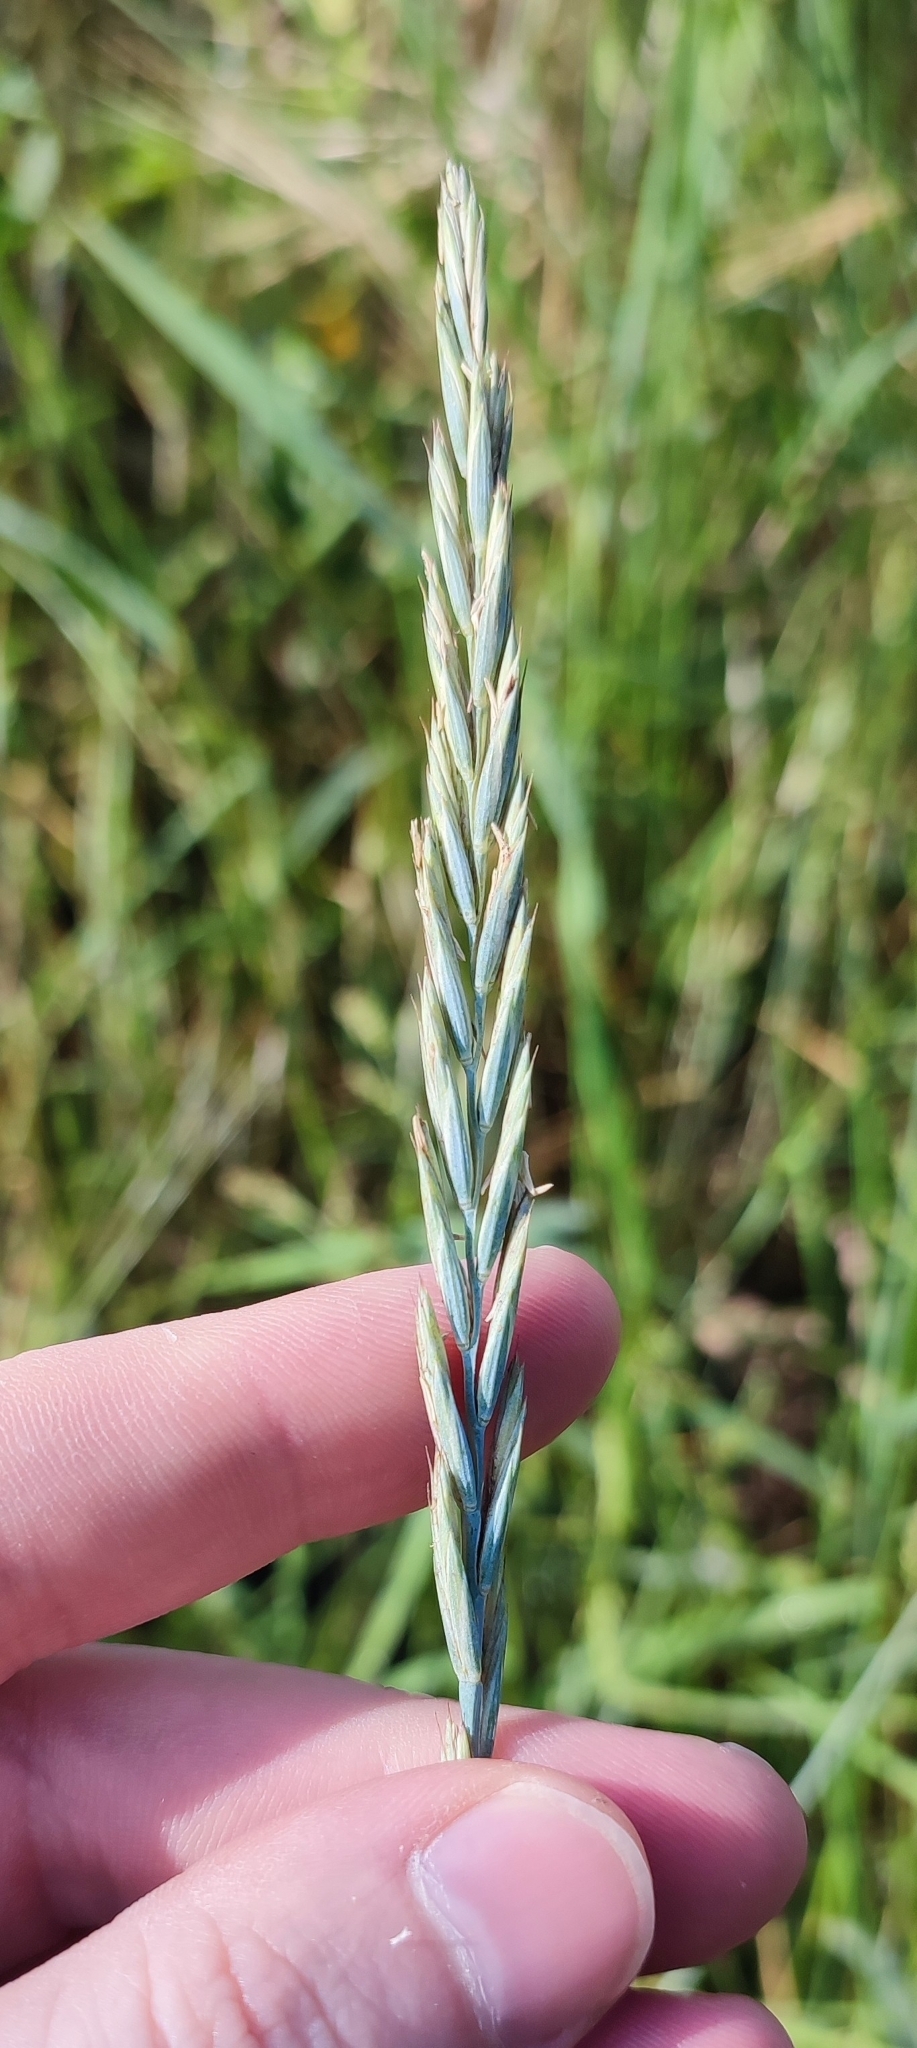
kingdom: Plantae
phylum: Tracheophyta
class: Liliopsida
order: Poales
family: Poaceae
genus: Elymus
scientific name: Elymus repens
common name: Quackgrass
